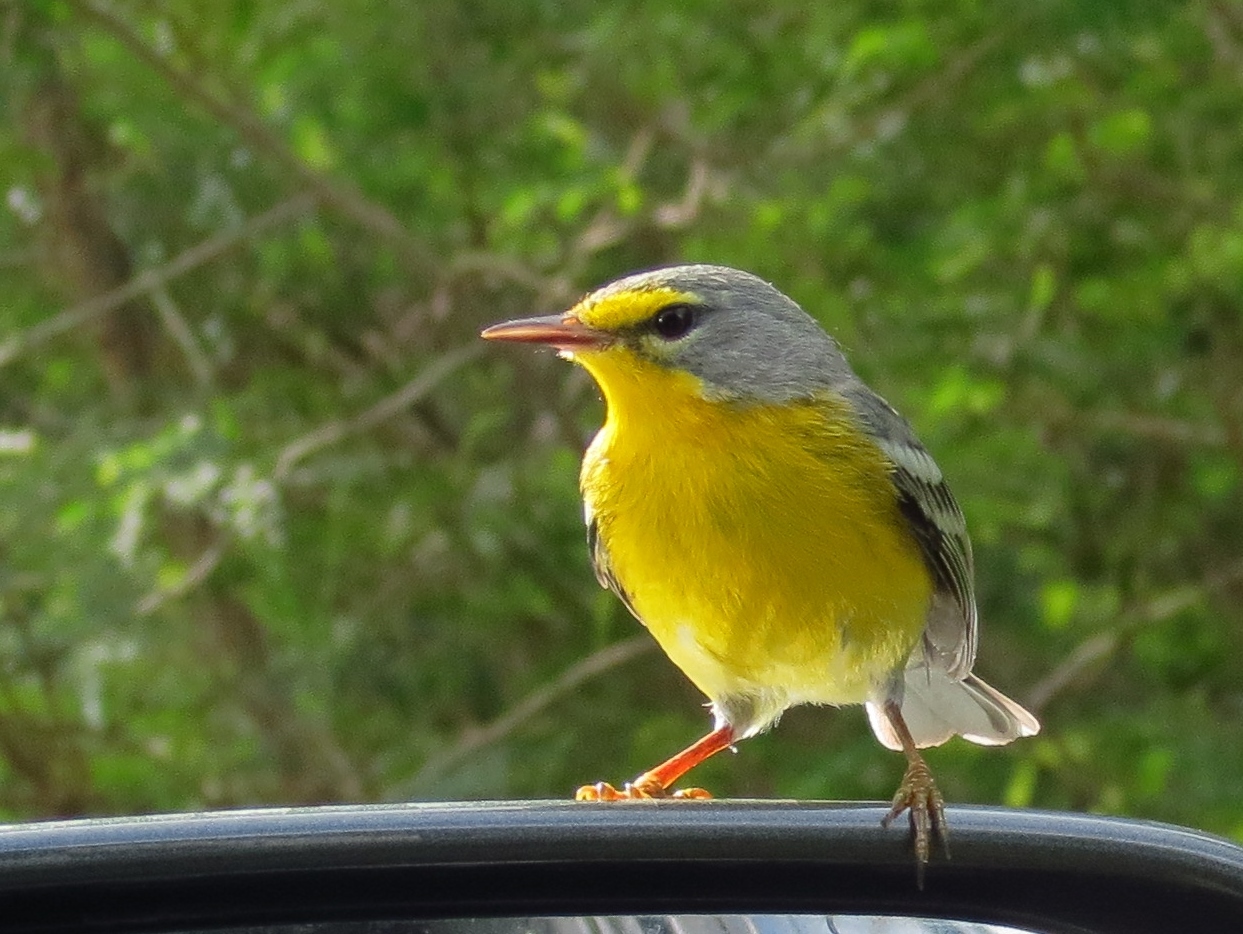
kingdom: Animalia
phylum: Chordata
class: Aves
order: Passeriformes
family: Parulidae
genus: Setophaga
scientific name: Setophaga adelaidae
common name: Adelaide's warbler
